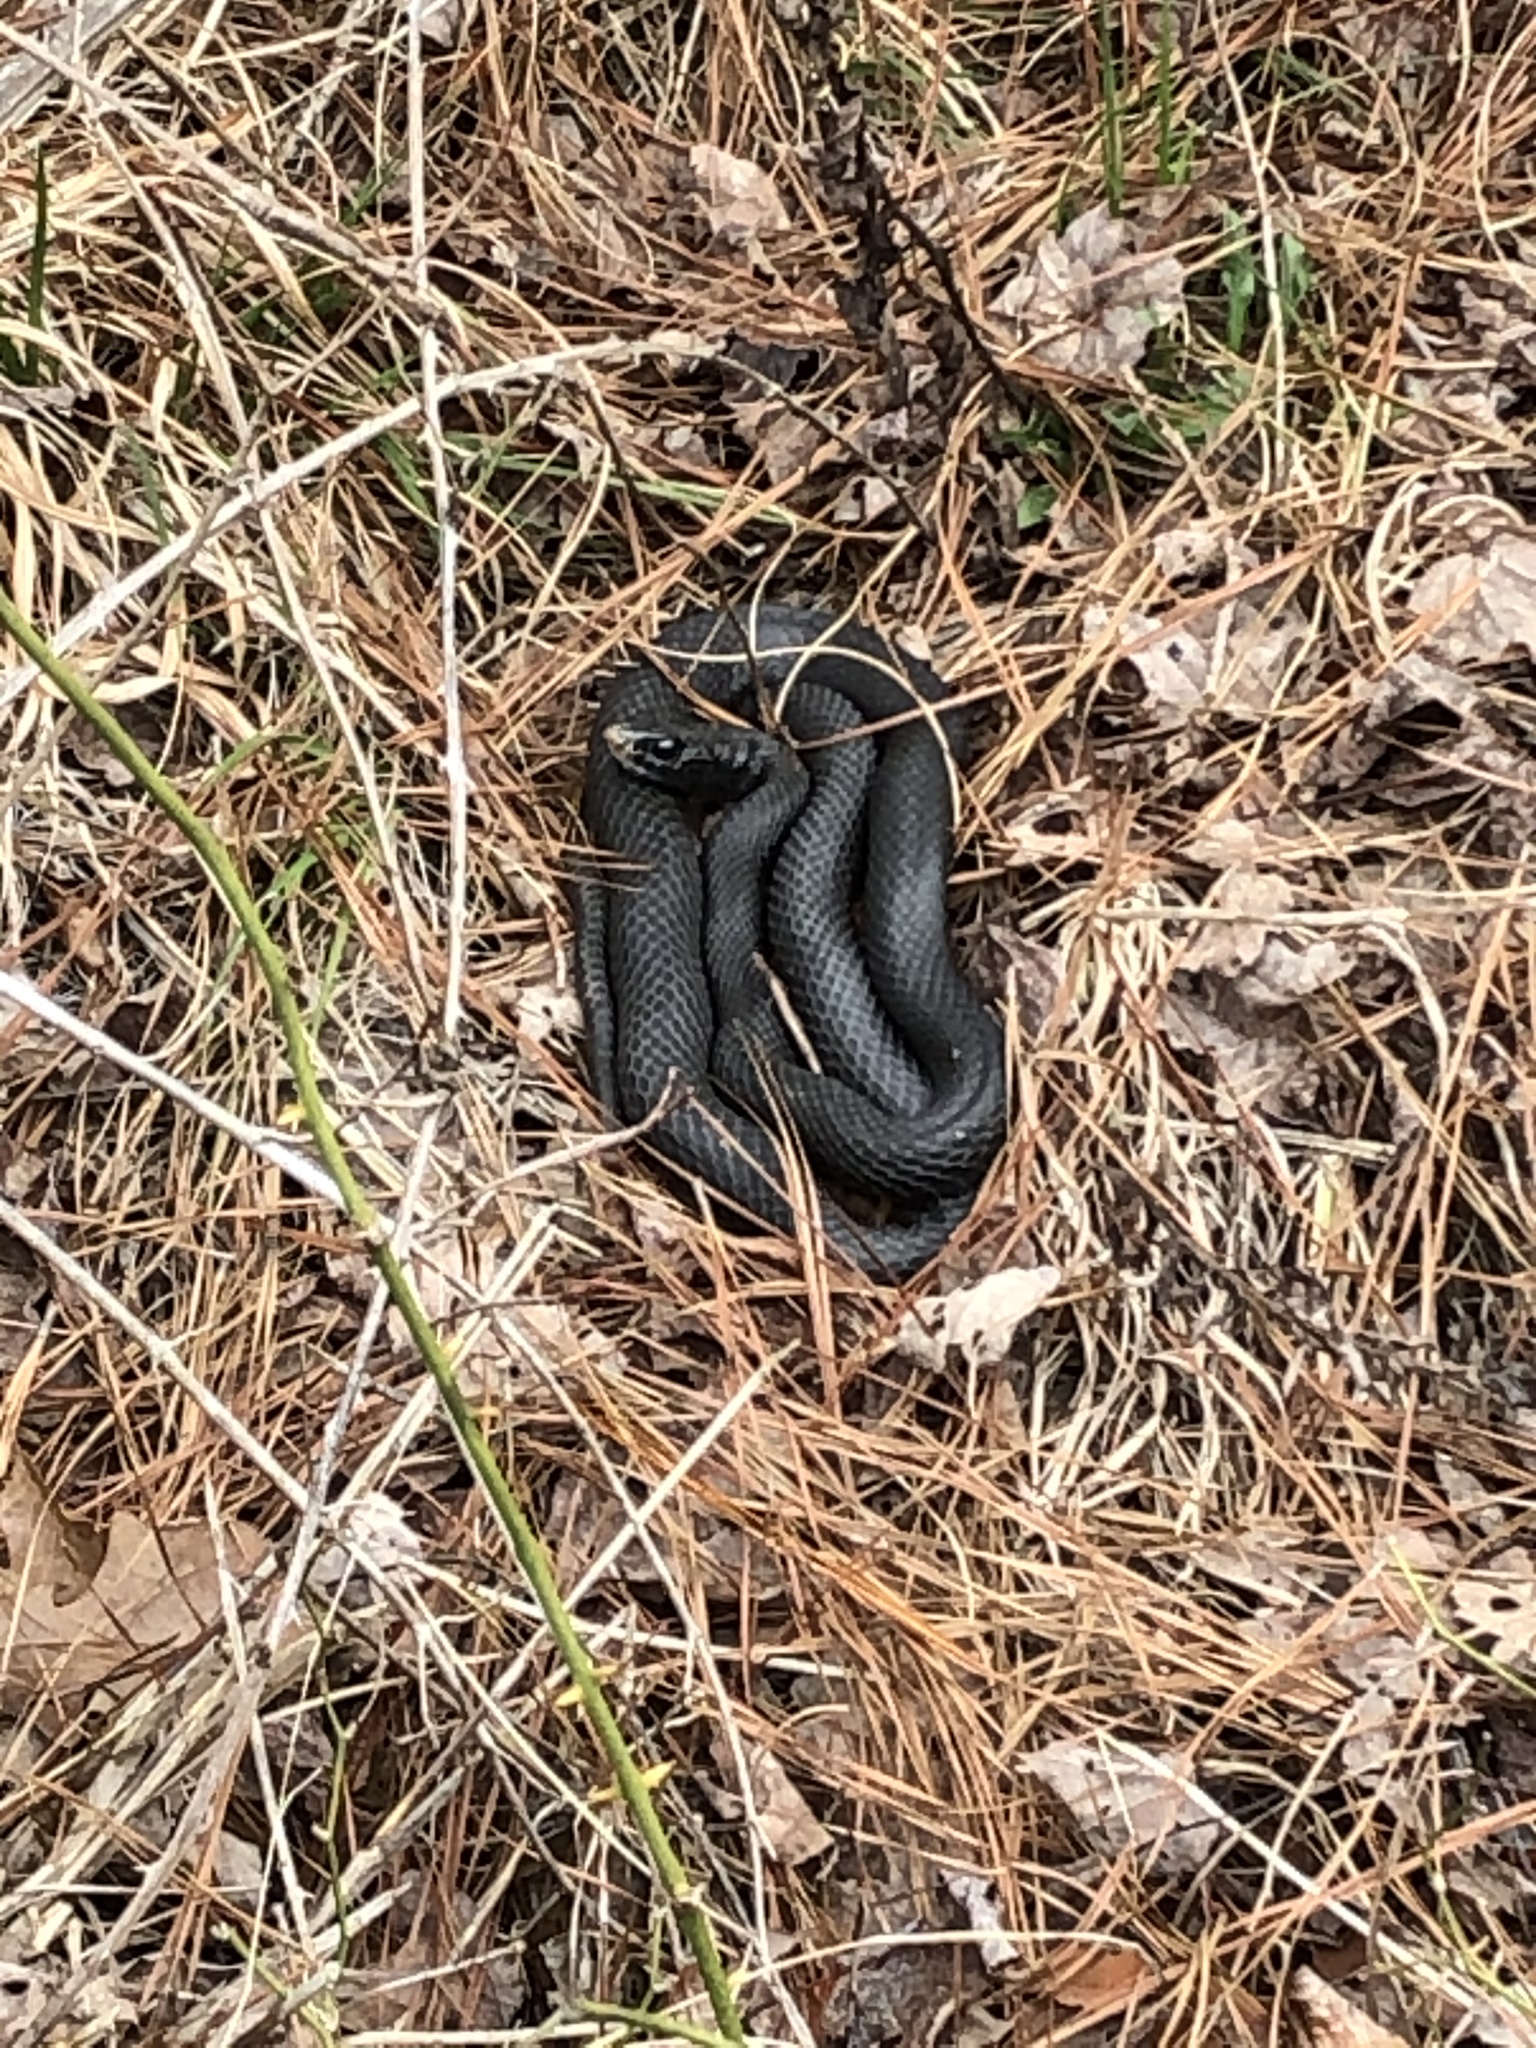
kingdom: Animalia
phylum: Chordata
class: Squamata
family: Colubridae
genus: Coluber
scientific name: Coluber constrictor
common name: Eastern racer
